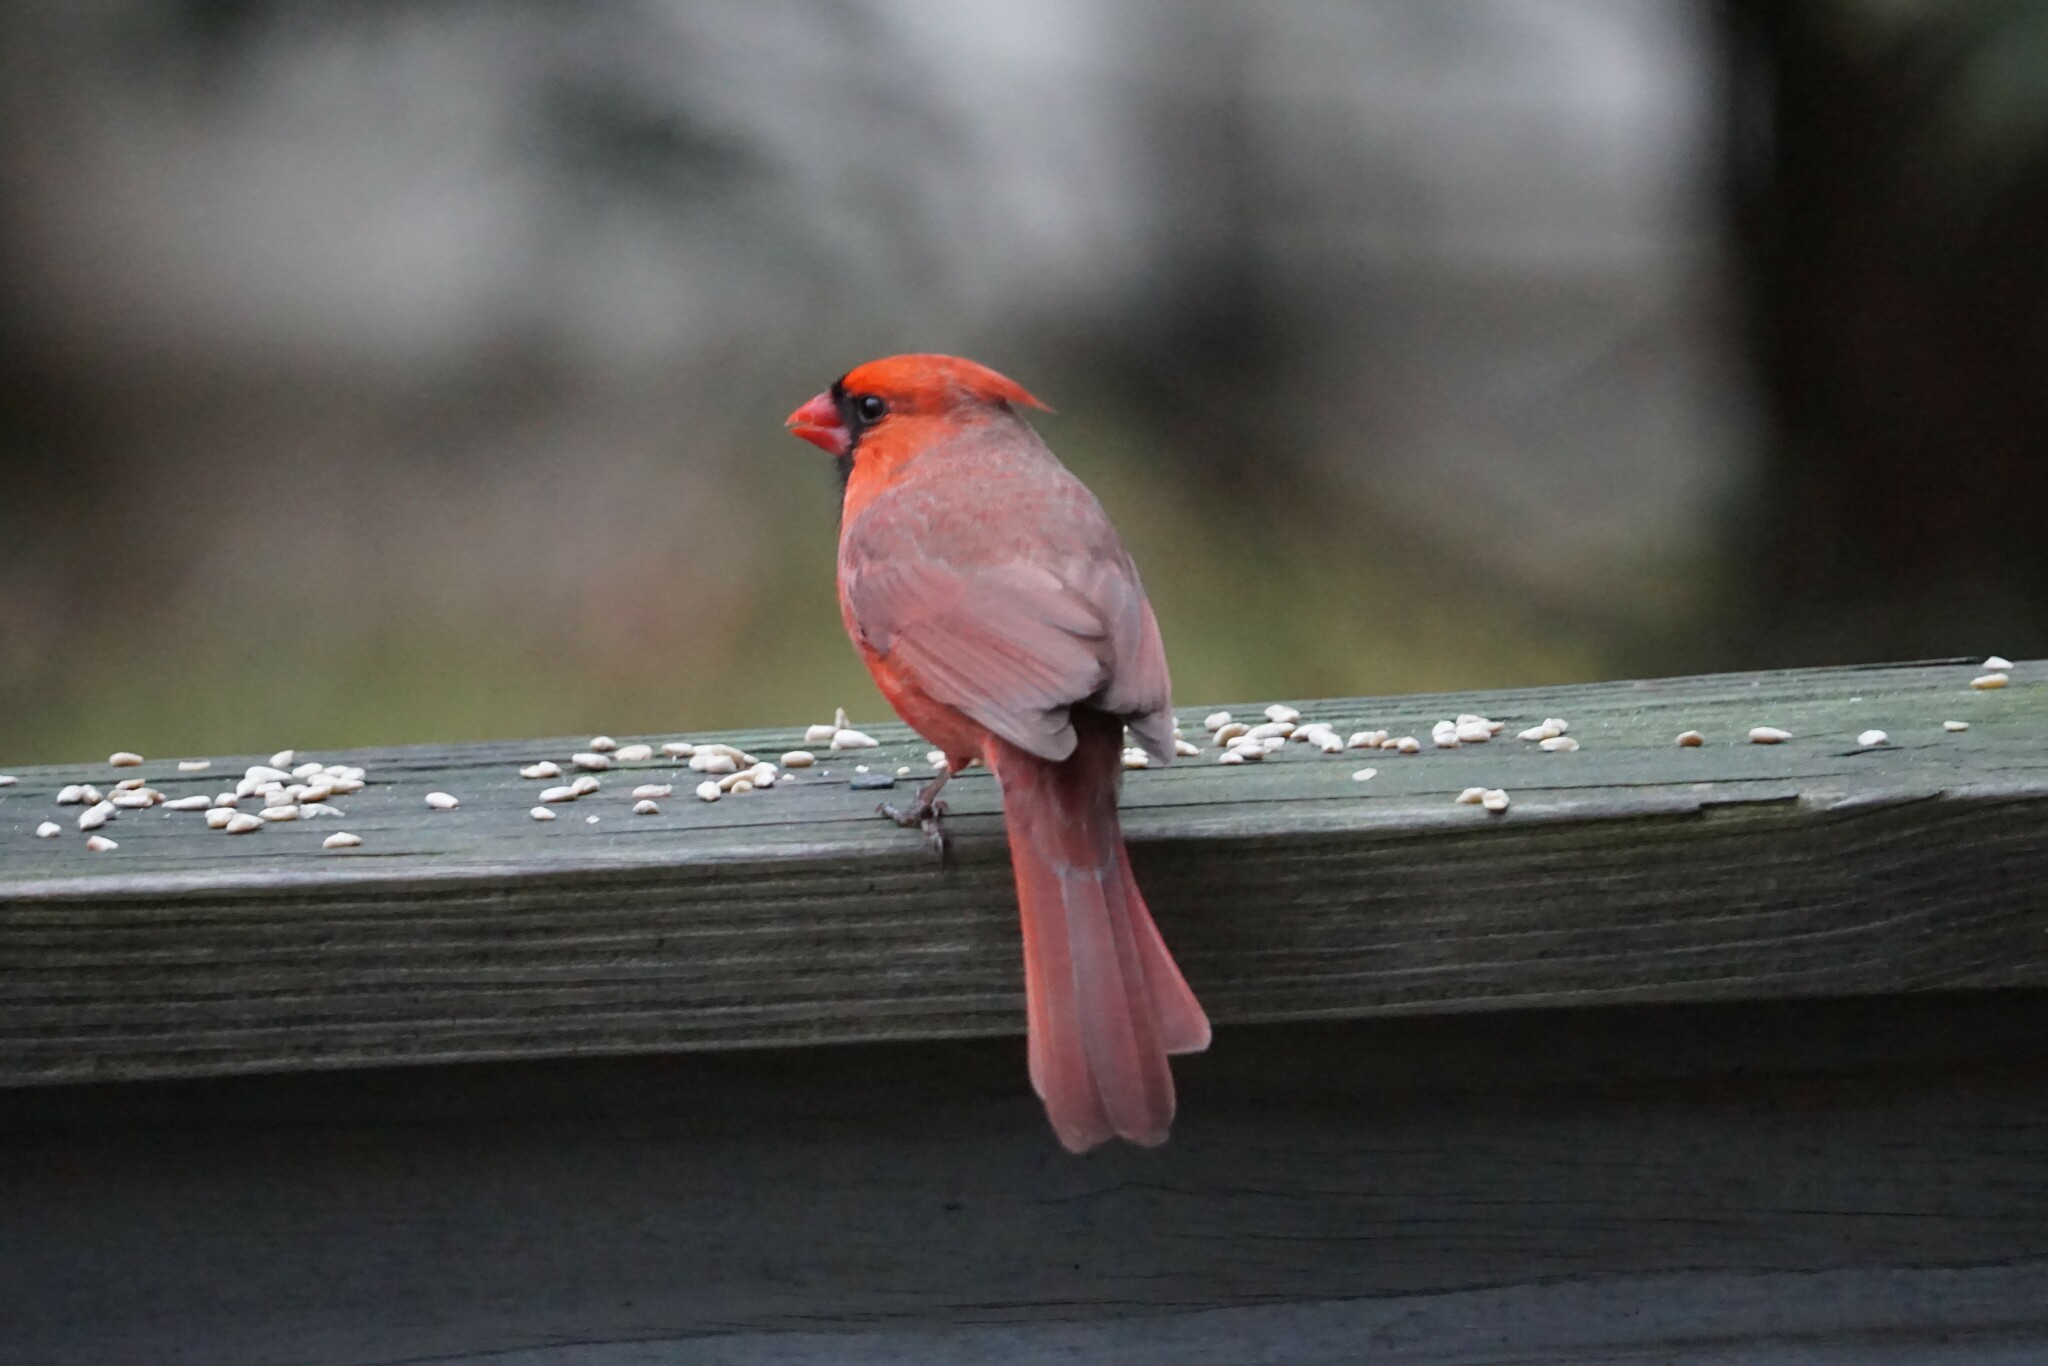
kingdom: Animalia
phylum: Chordata
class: Aves
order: Passeriformes
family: Cardinalidae
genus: Cardinalis
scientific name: Cardinalis cardinalis
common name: Northern cardinal
